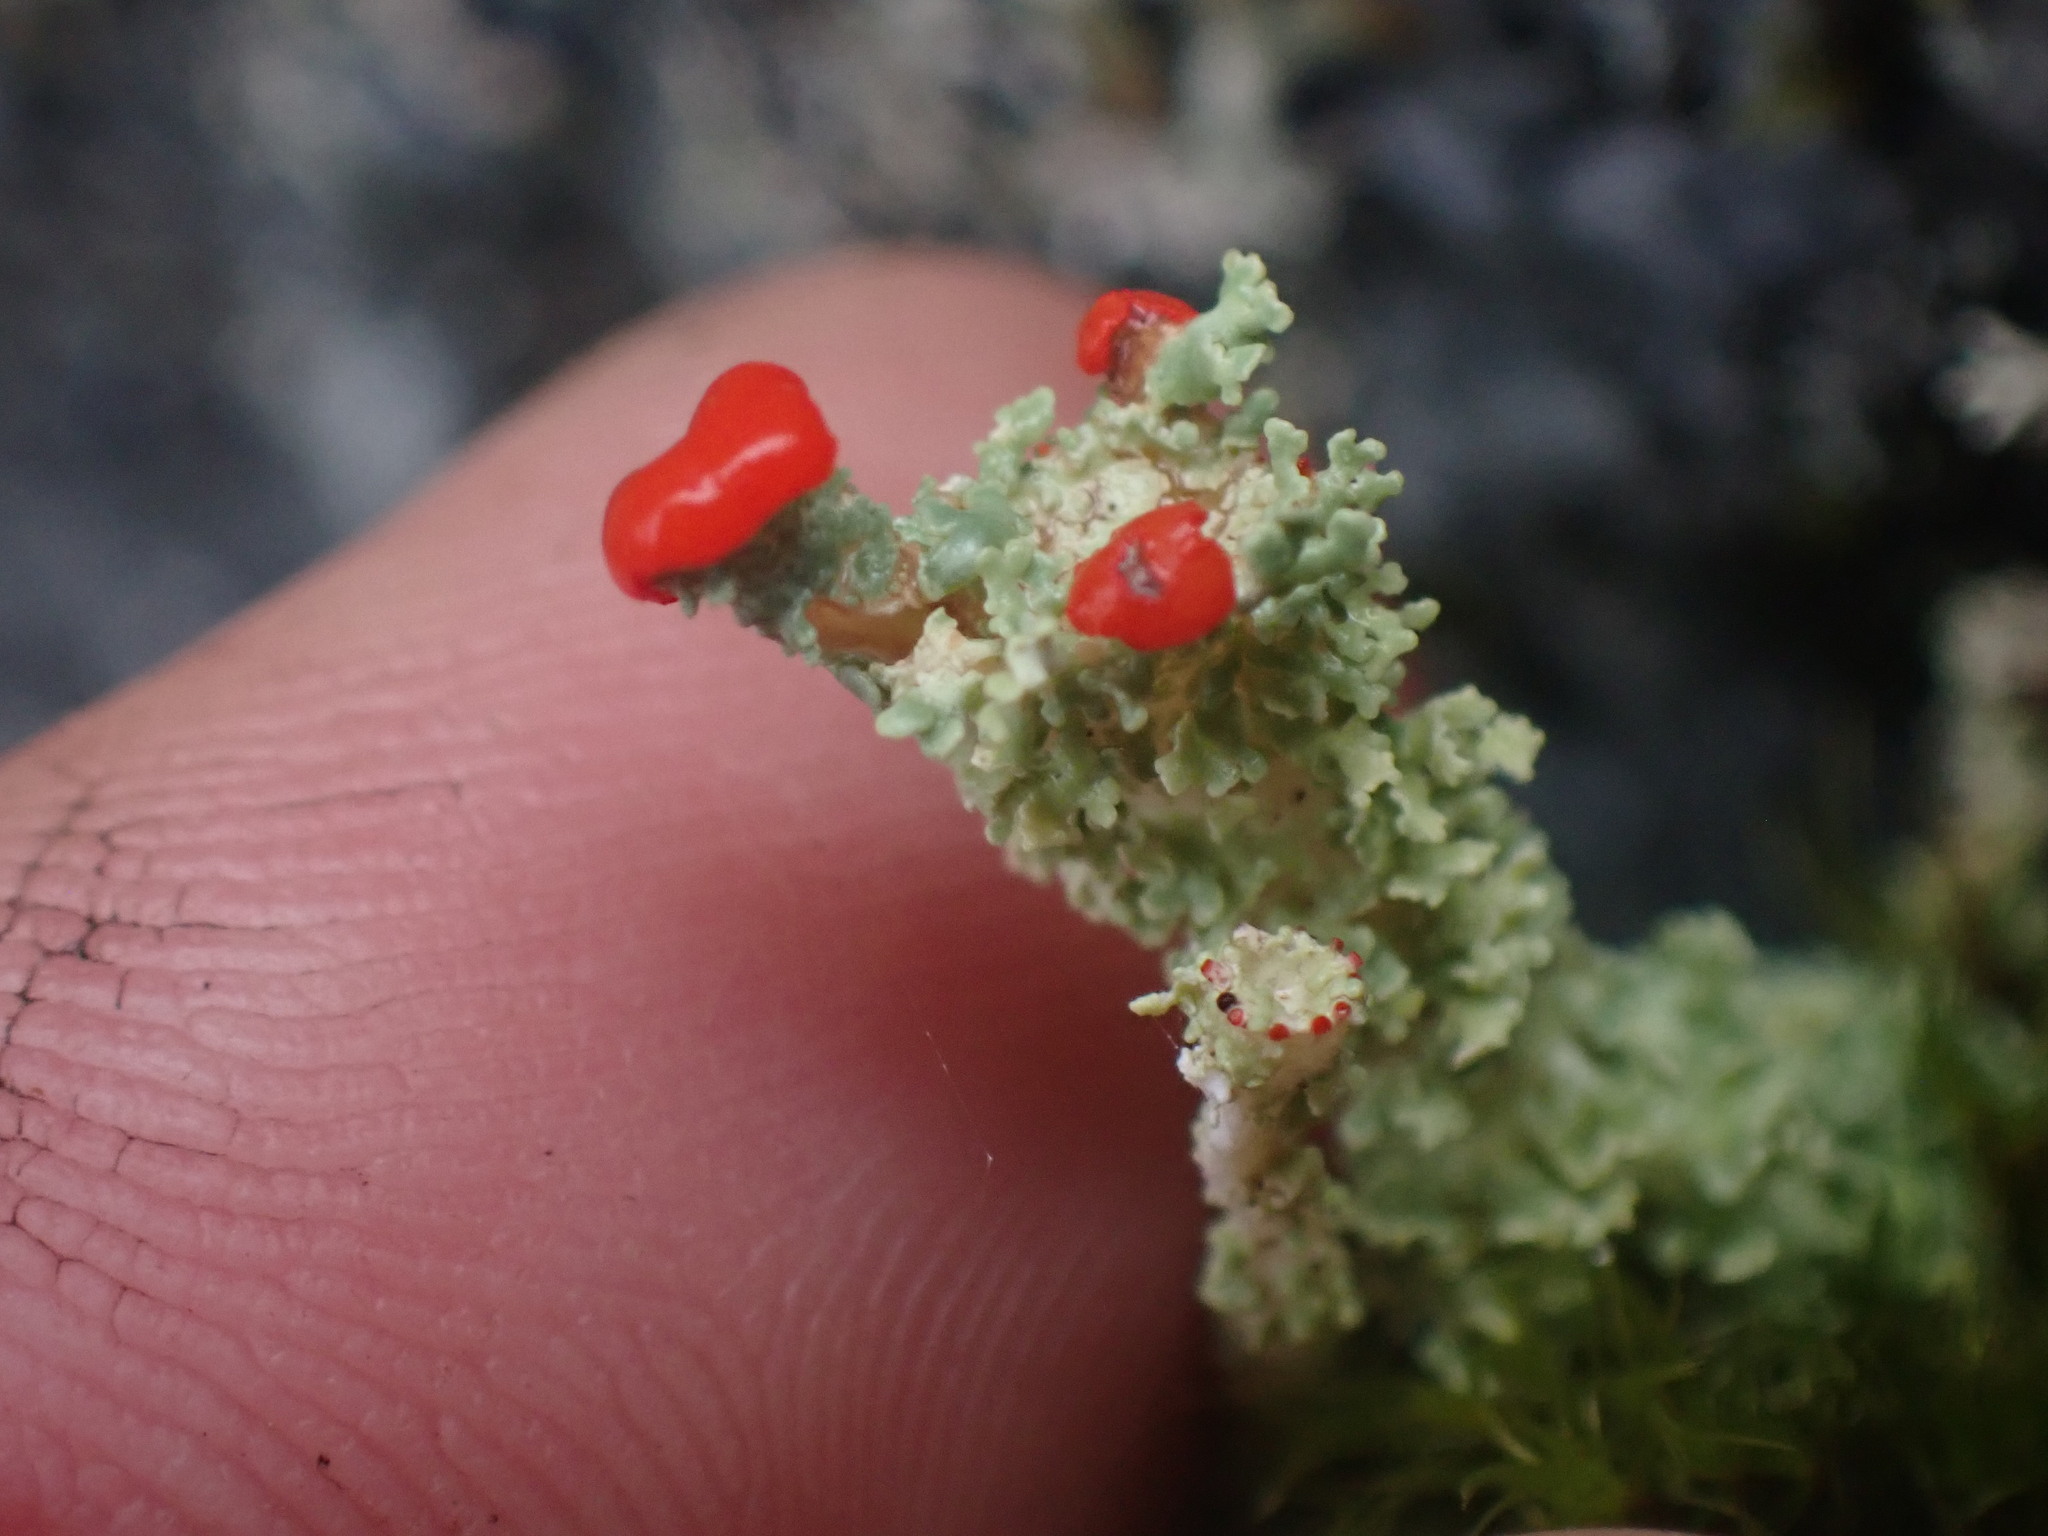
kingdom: Fungi
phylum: Ascomycota
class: Lecanoromycetes
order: Lecanorales
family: Cladoniaceae
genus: Cladonia
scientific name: Cladonia bellidiflora
